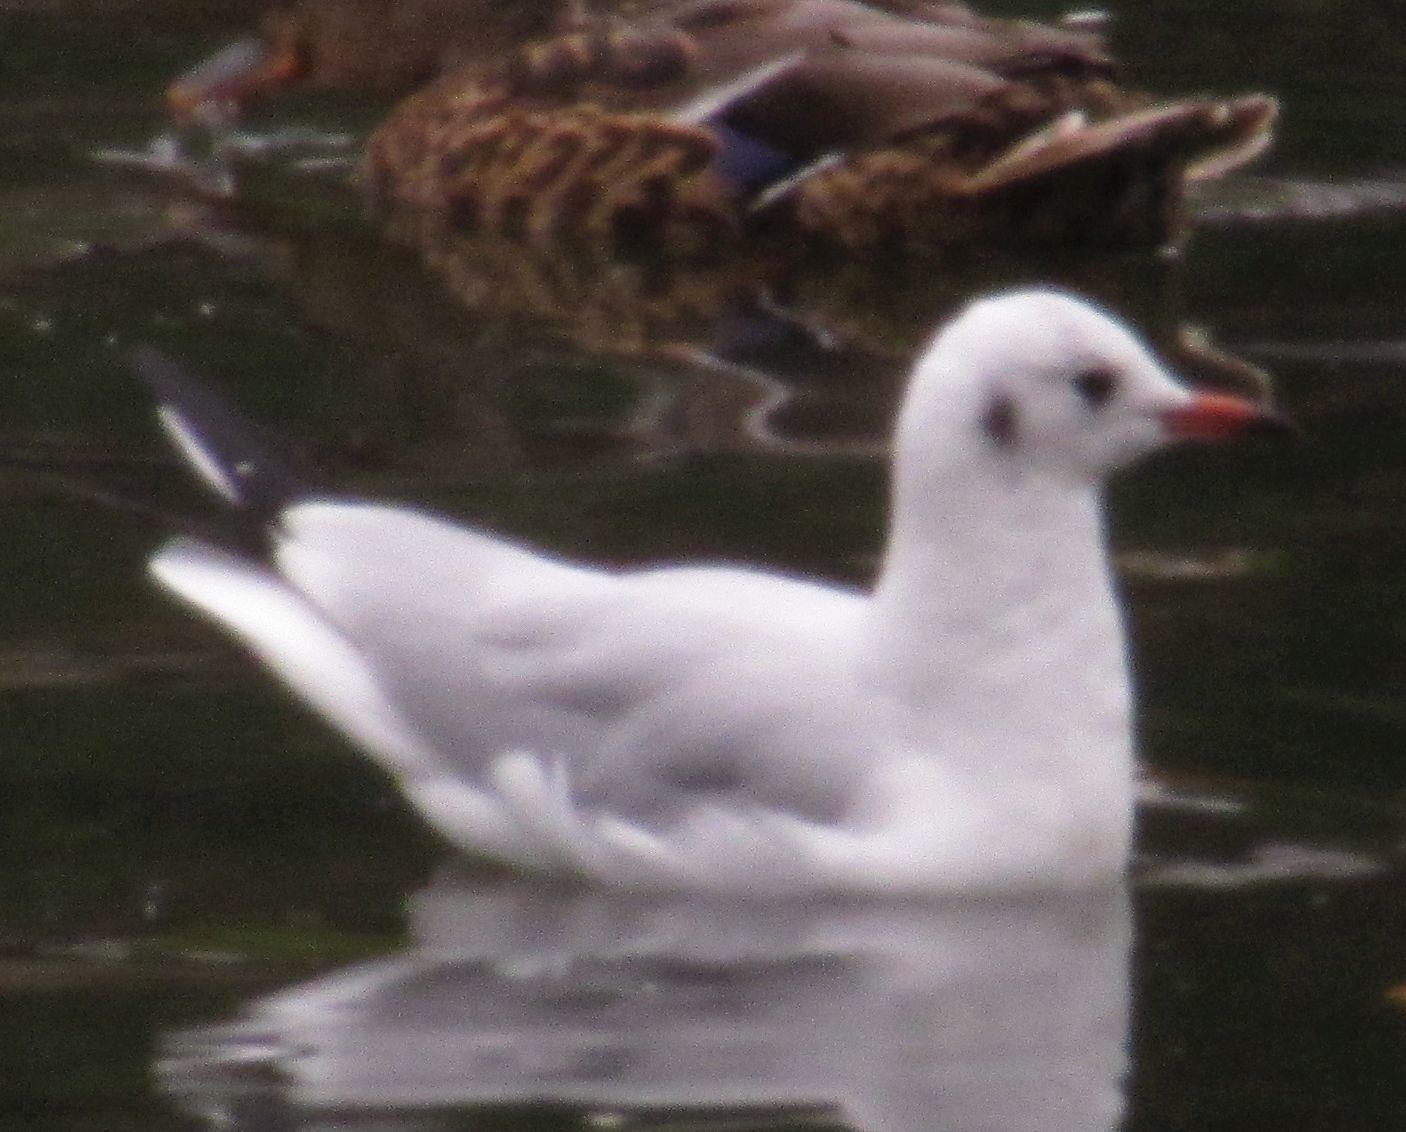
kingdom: Animalia
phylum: Chordata
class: Aves
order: Charadriiformes
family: Laridae
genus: Chroicocephalus
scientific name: Chroicocephalus ridibundus
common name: Black-headed gull
